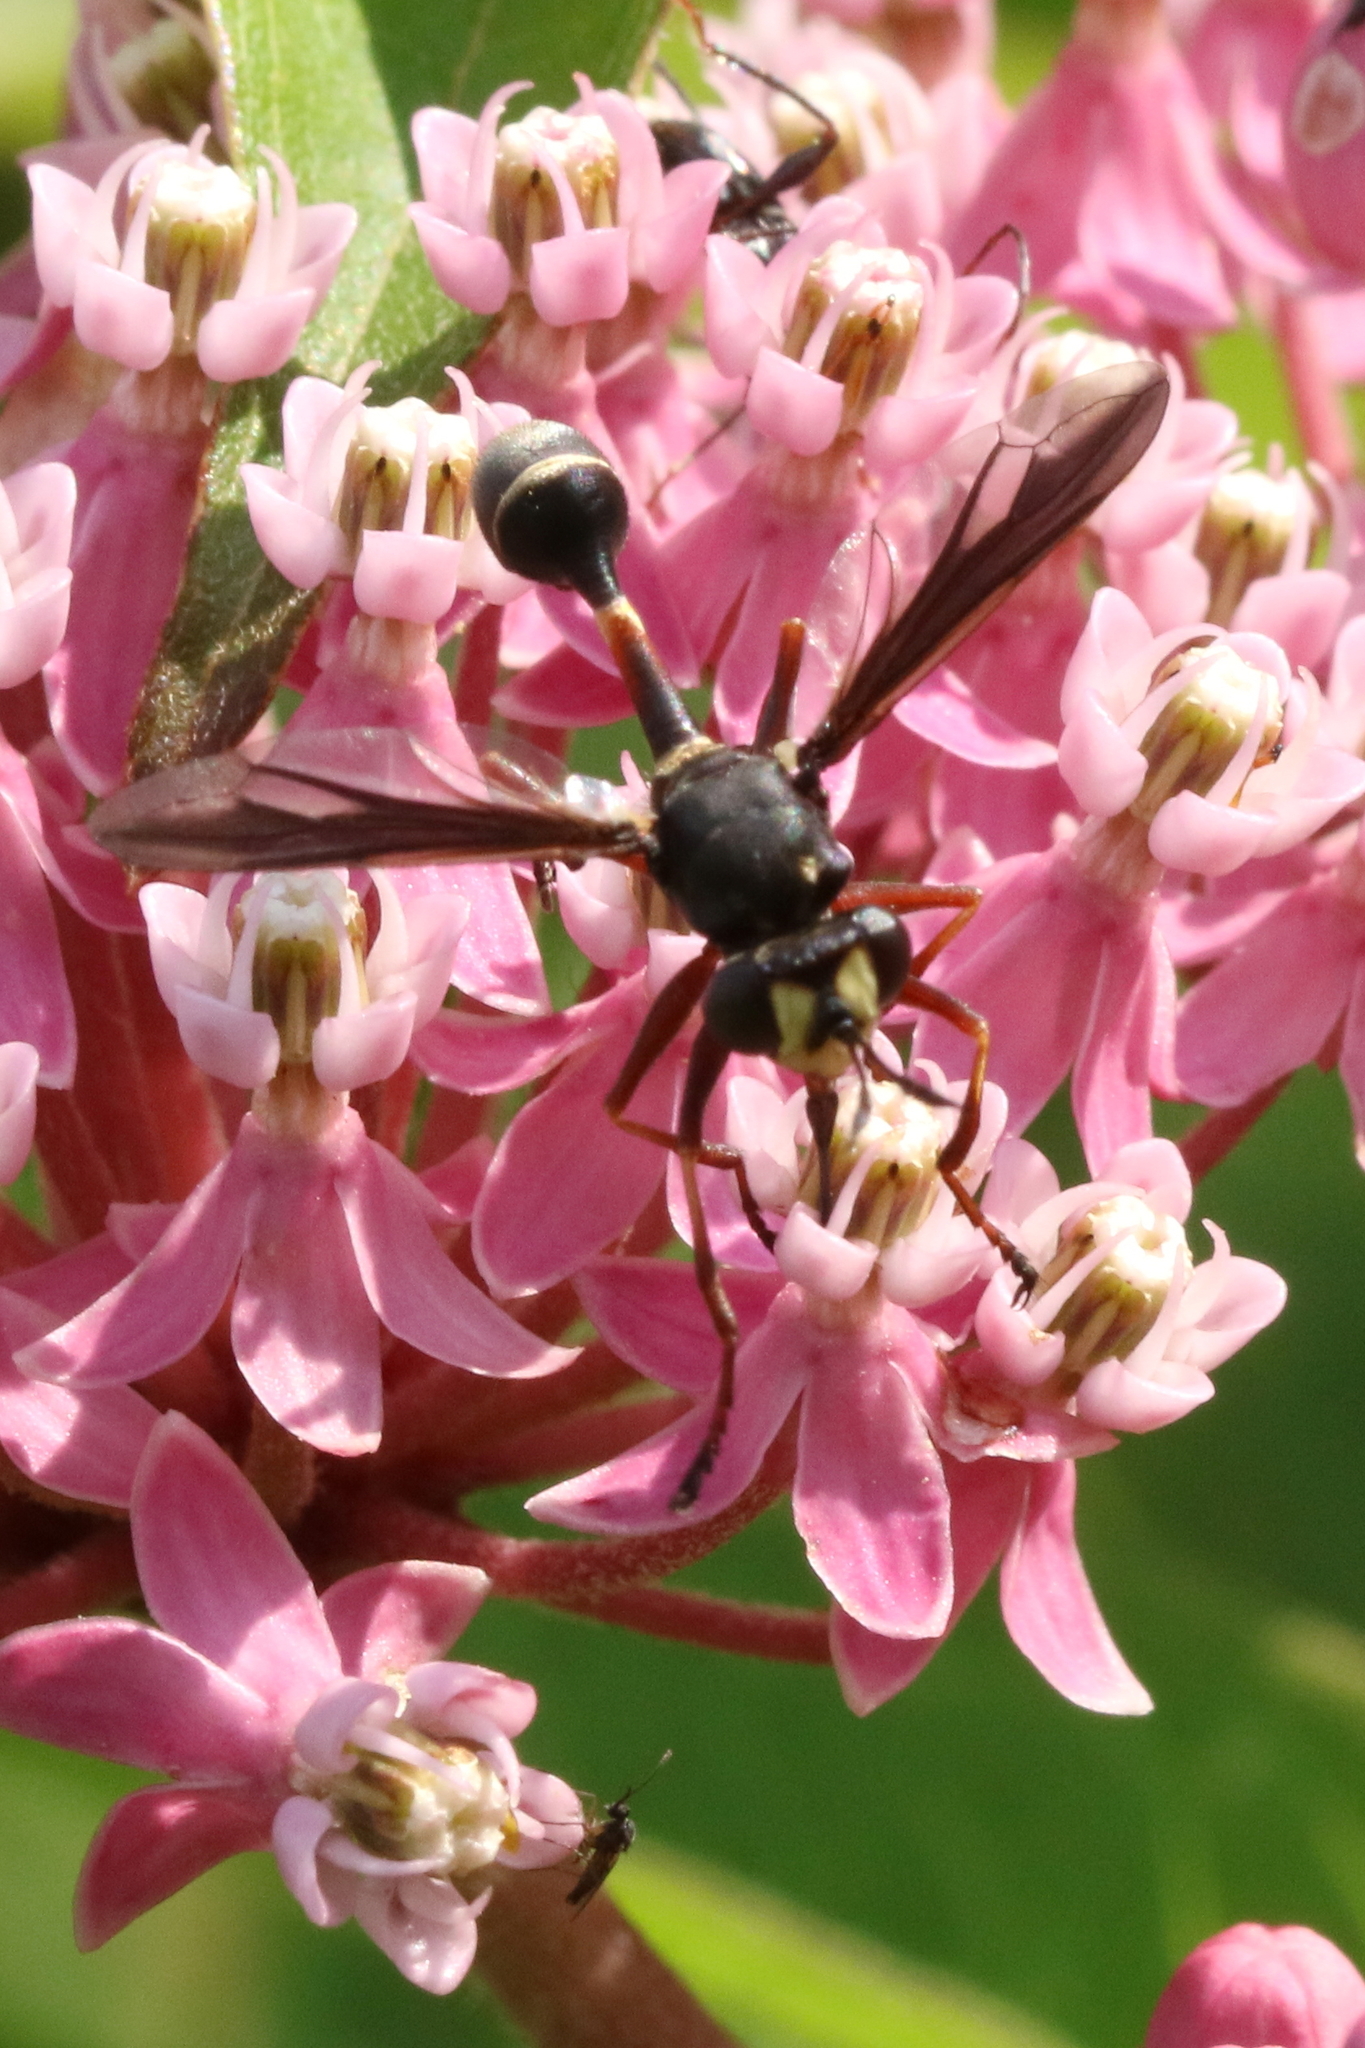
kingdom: Animalia
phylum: Arthropoda
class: Insecta
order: Diptera
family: Conopidae
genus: Physocephala
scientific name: Physocephala furcillata
